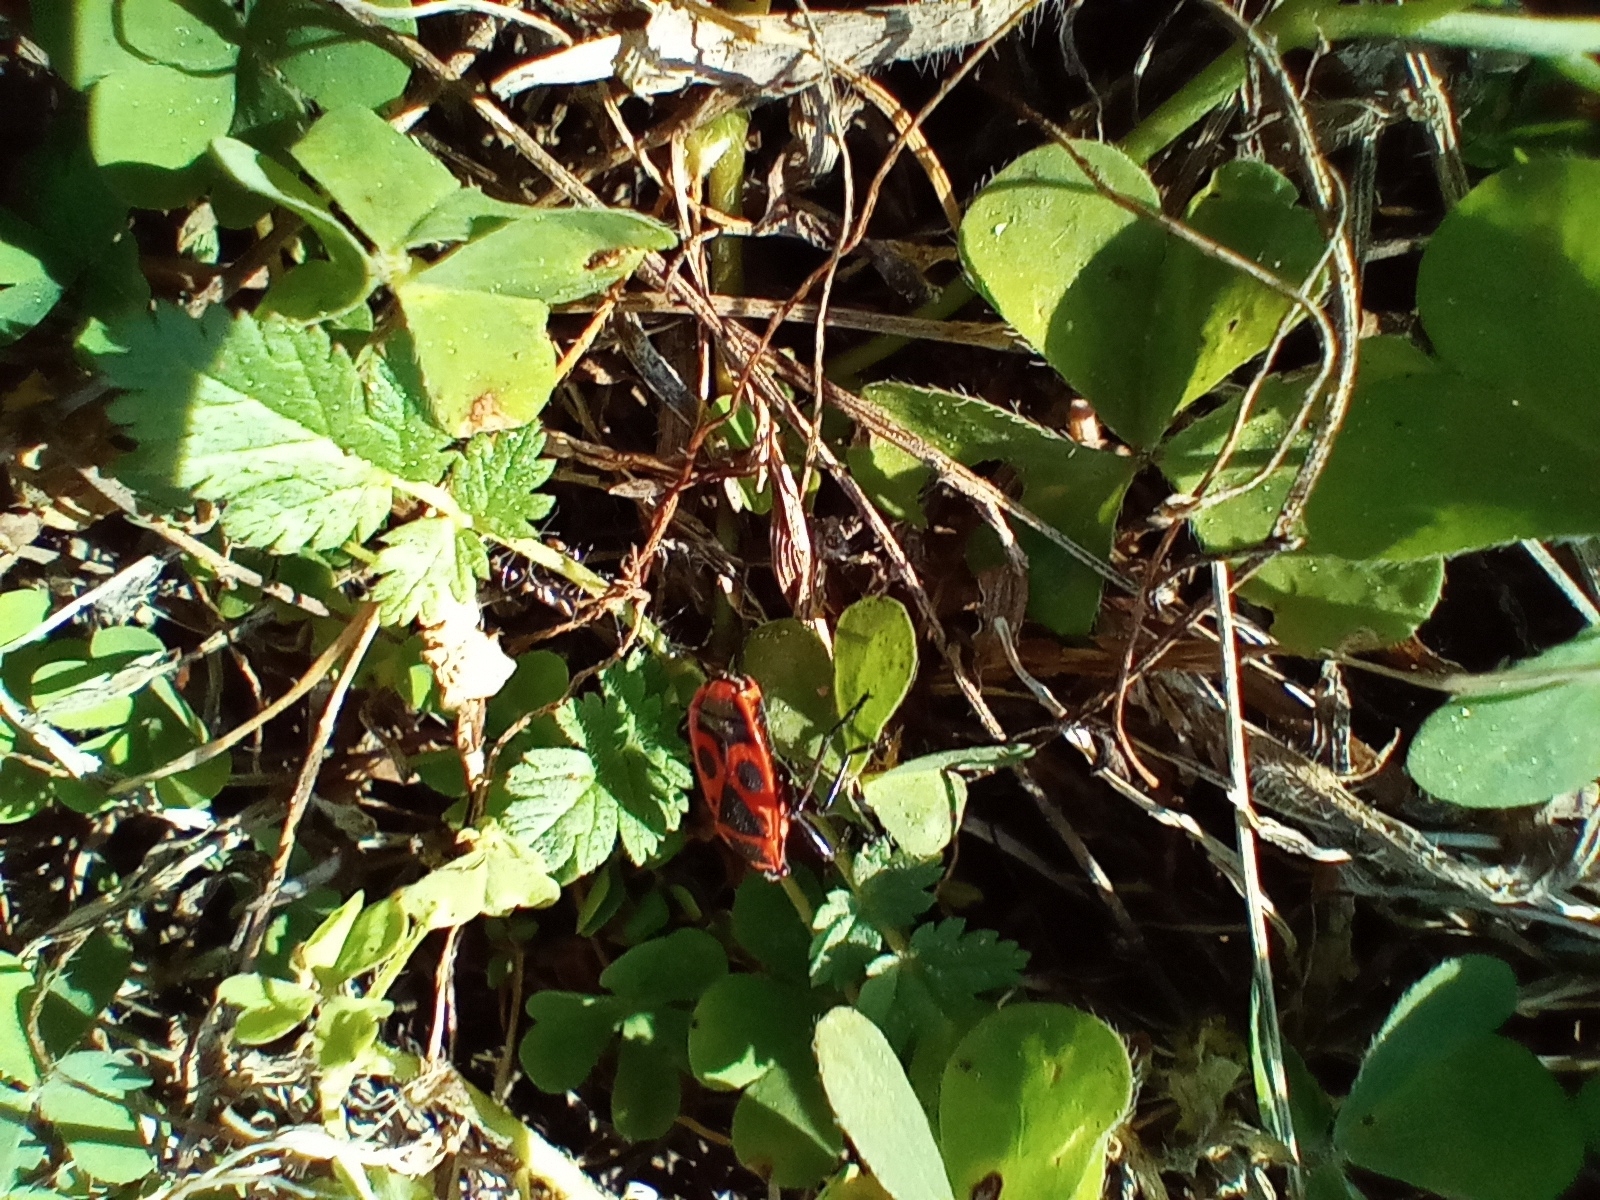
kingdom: Animalia
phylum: Arthropoda
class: Insecta
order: Hemiptera
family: Pyrrhocoridae
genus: Pyrrhocoris
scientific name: Pyrrhocoris apterus
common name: Firebug
